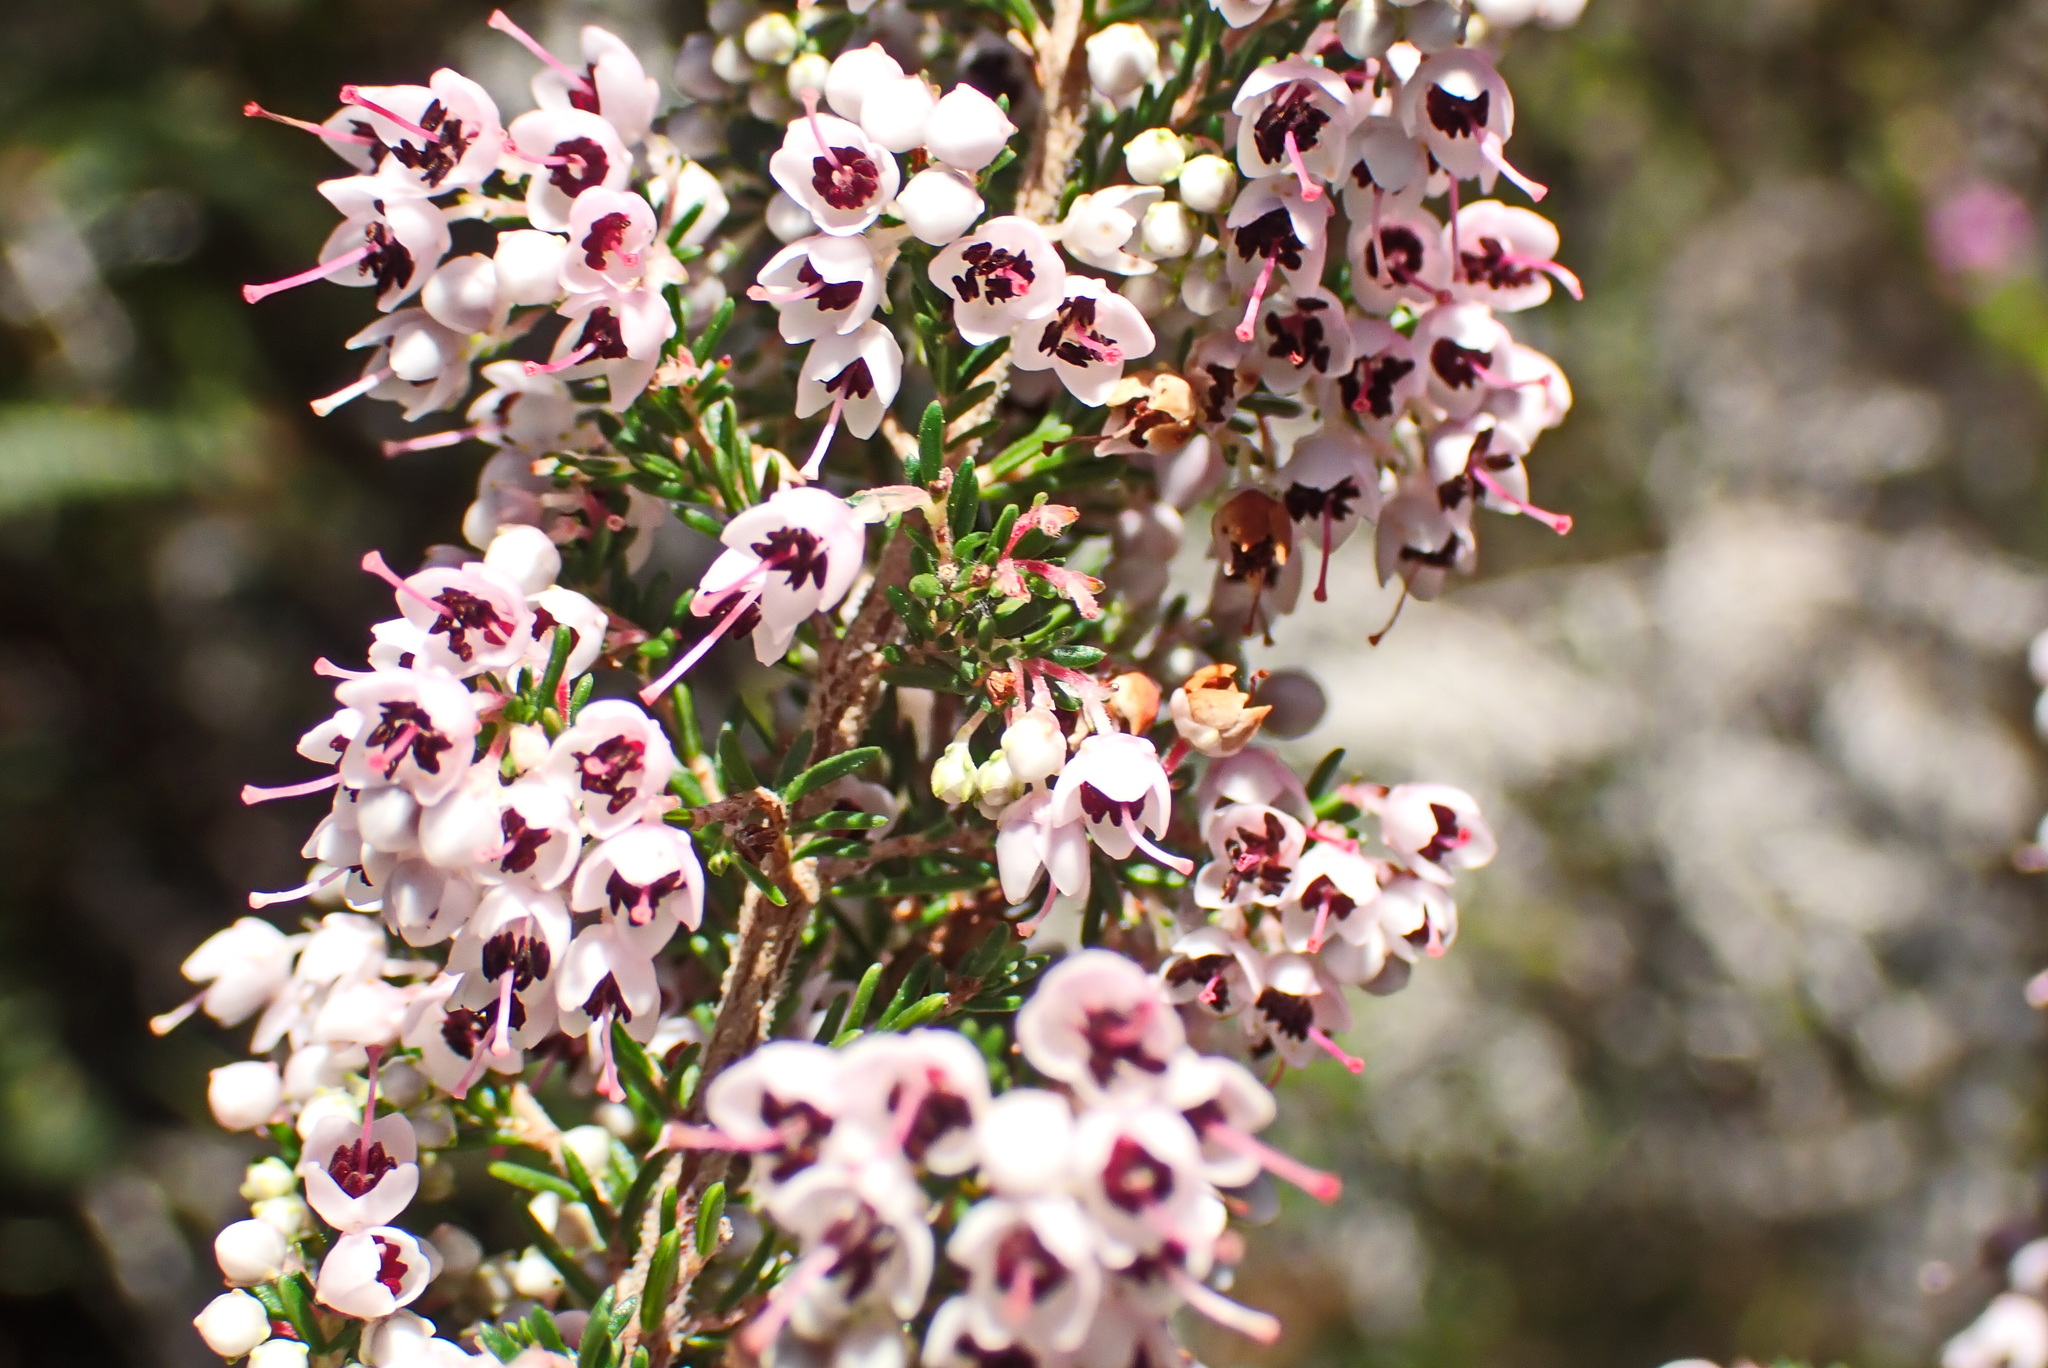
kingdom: Plantae
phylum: Tracheophyta
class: Magnoliopsida
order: Ericales
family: Ericaceae
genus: Erica
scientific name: Erica sparsa
